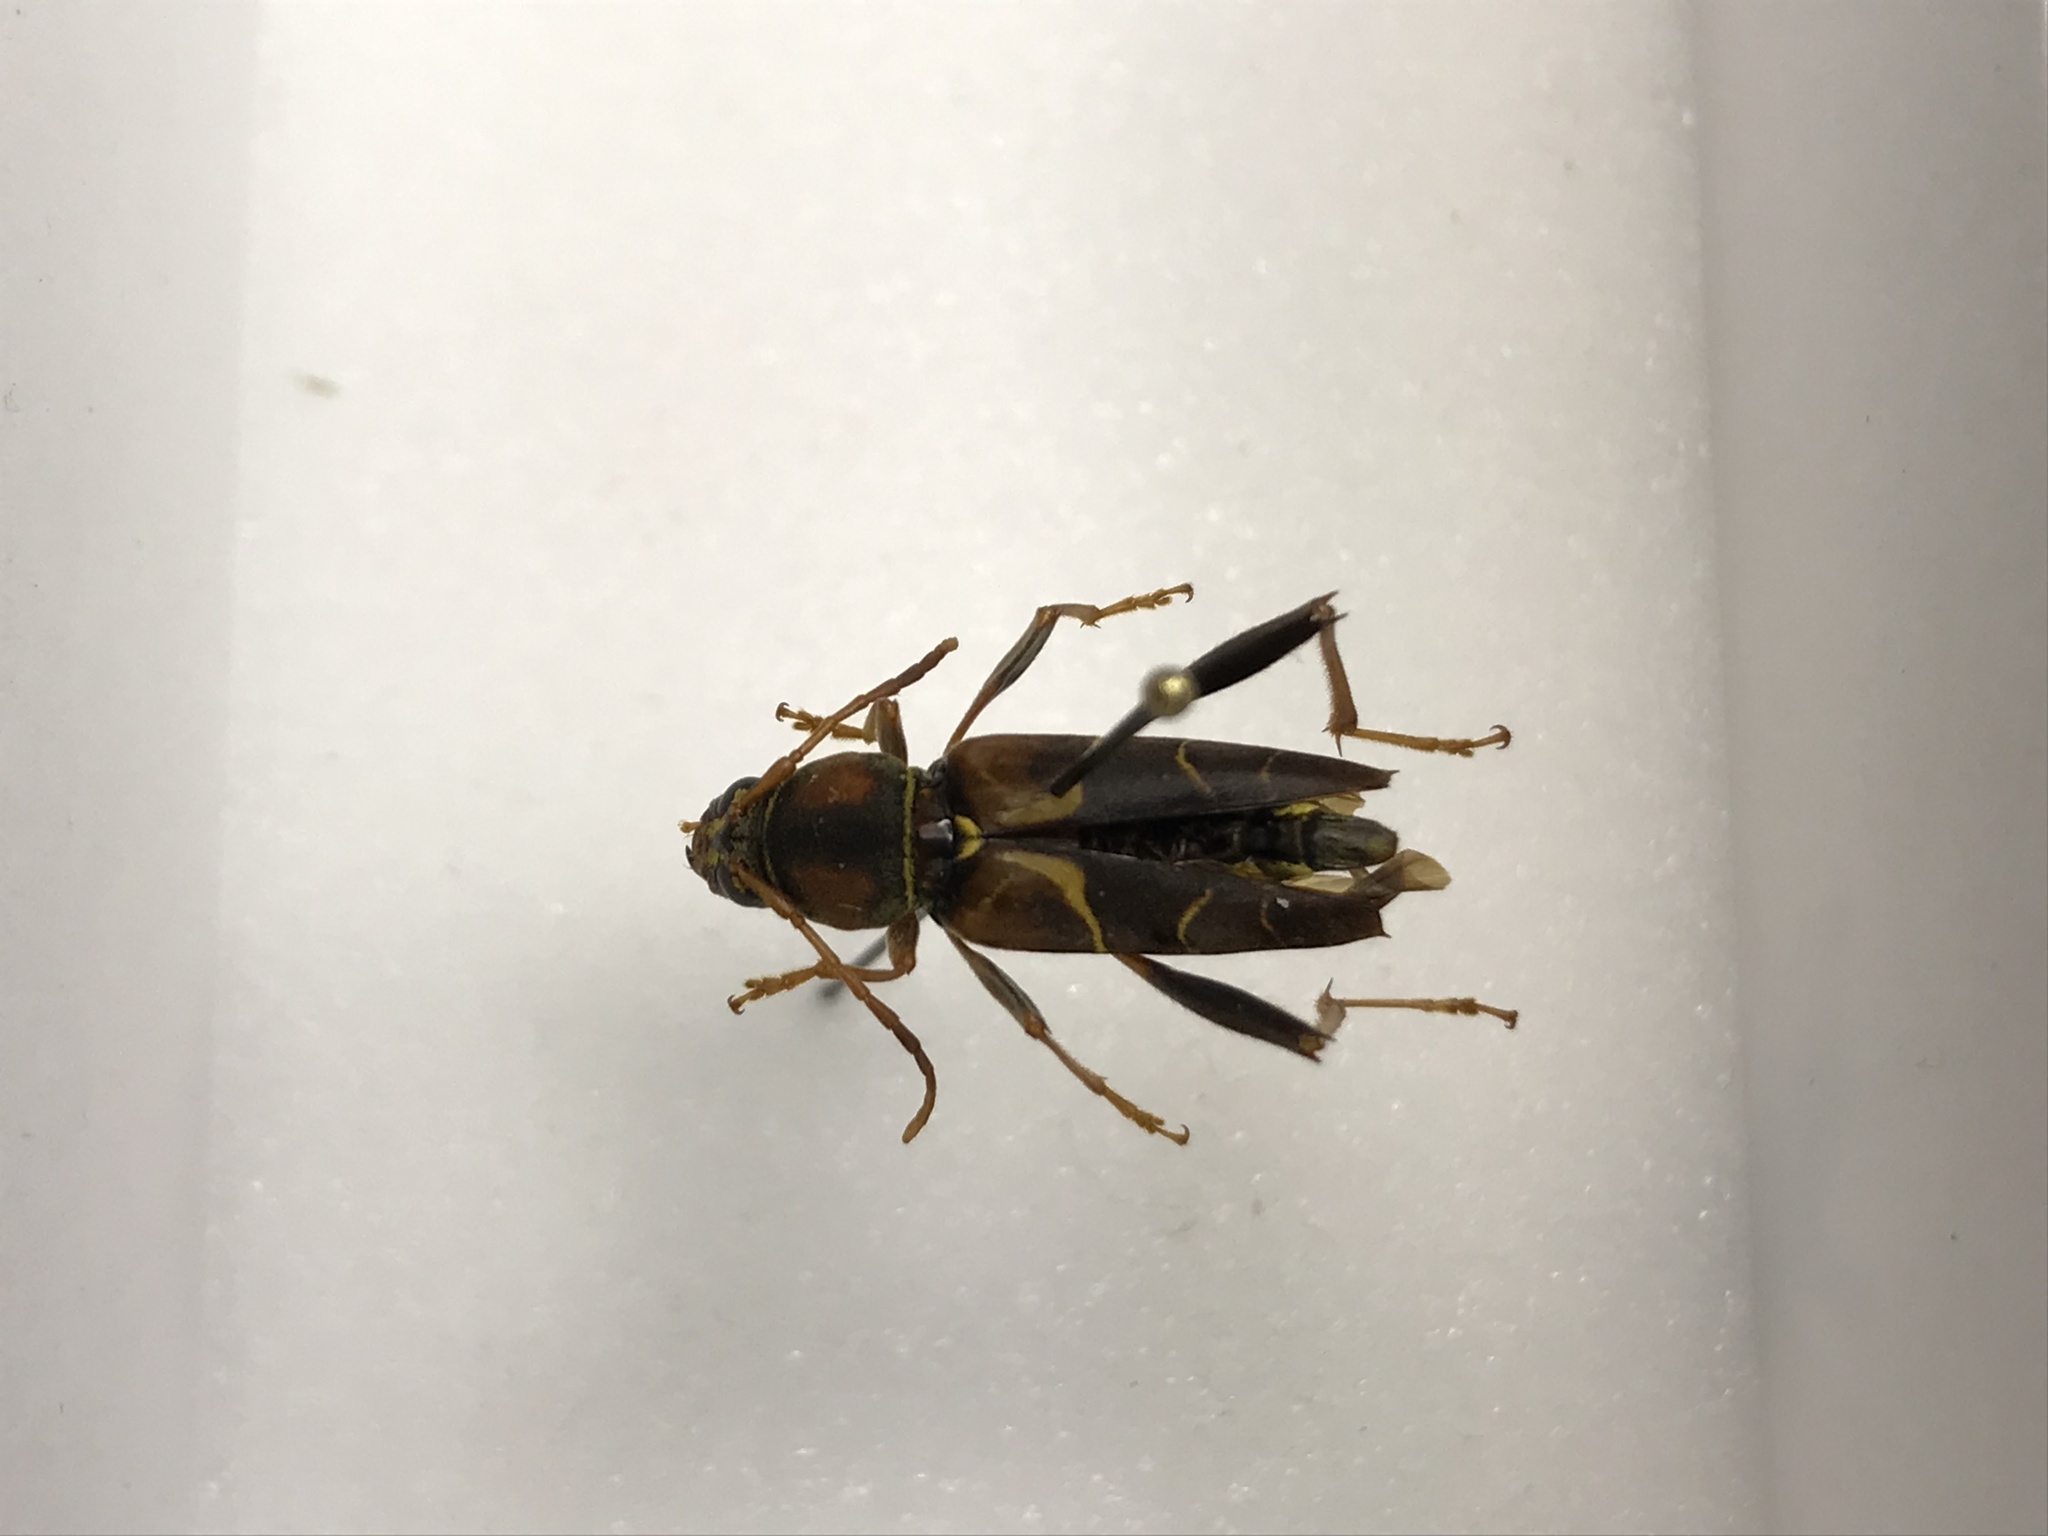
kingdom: Animalia
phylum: Arthropoda
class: Insecta
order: Coleoptera
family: Cerambycidae
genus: Neoclytus
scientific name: Neoclytus mucronatus
